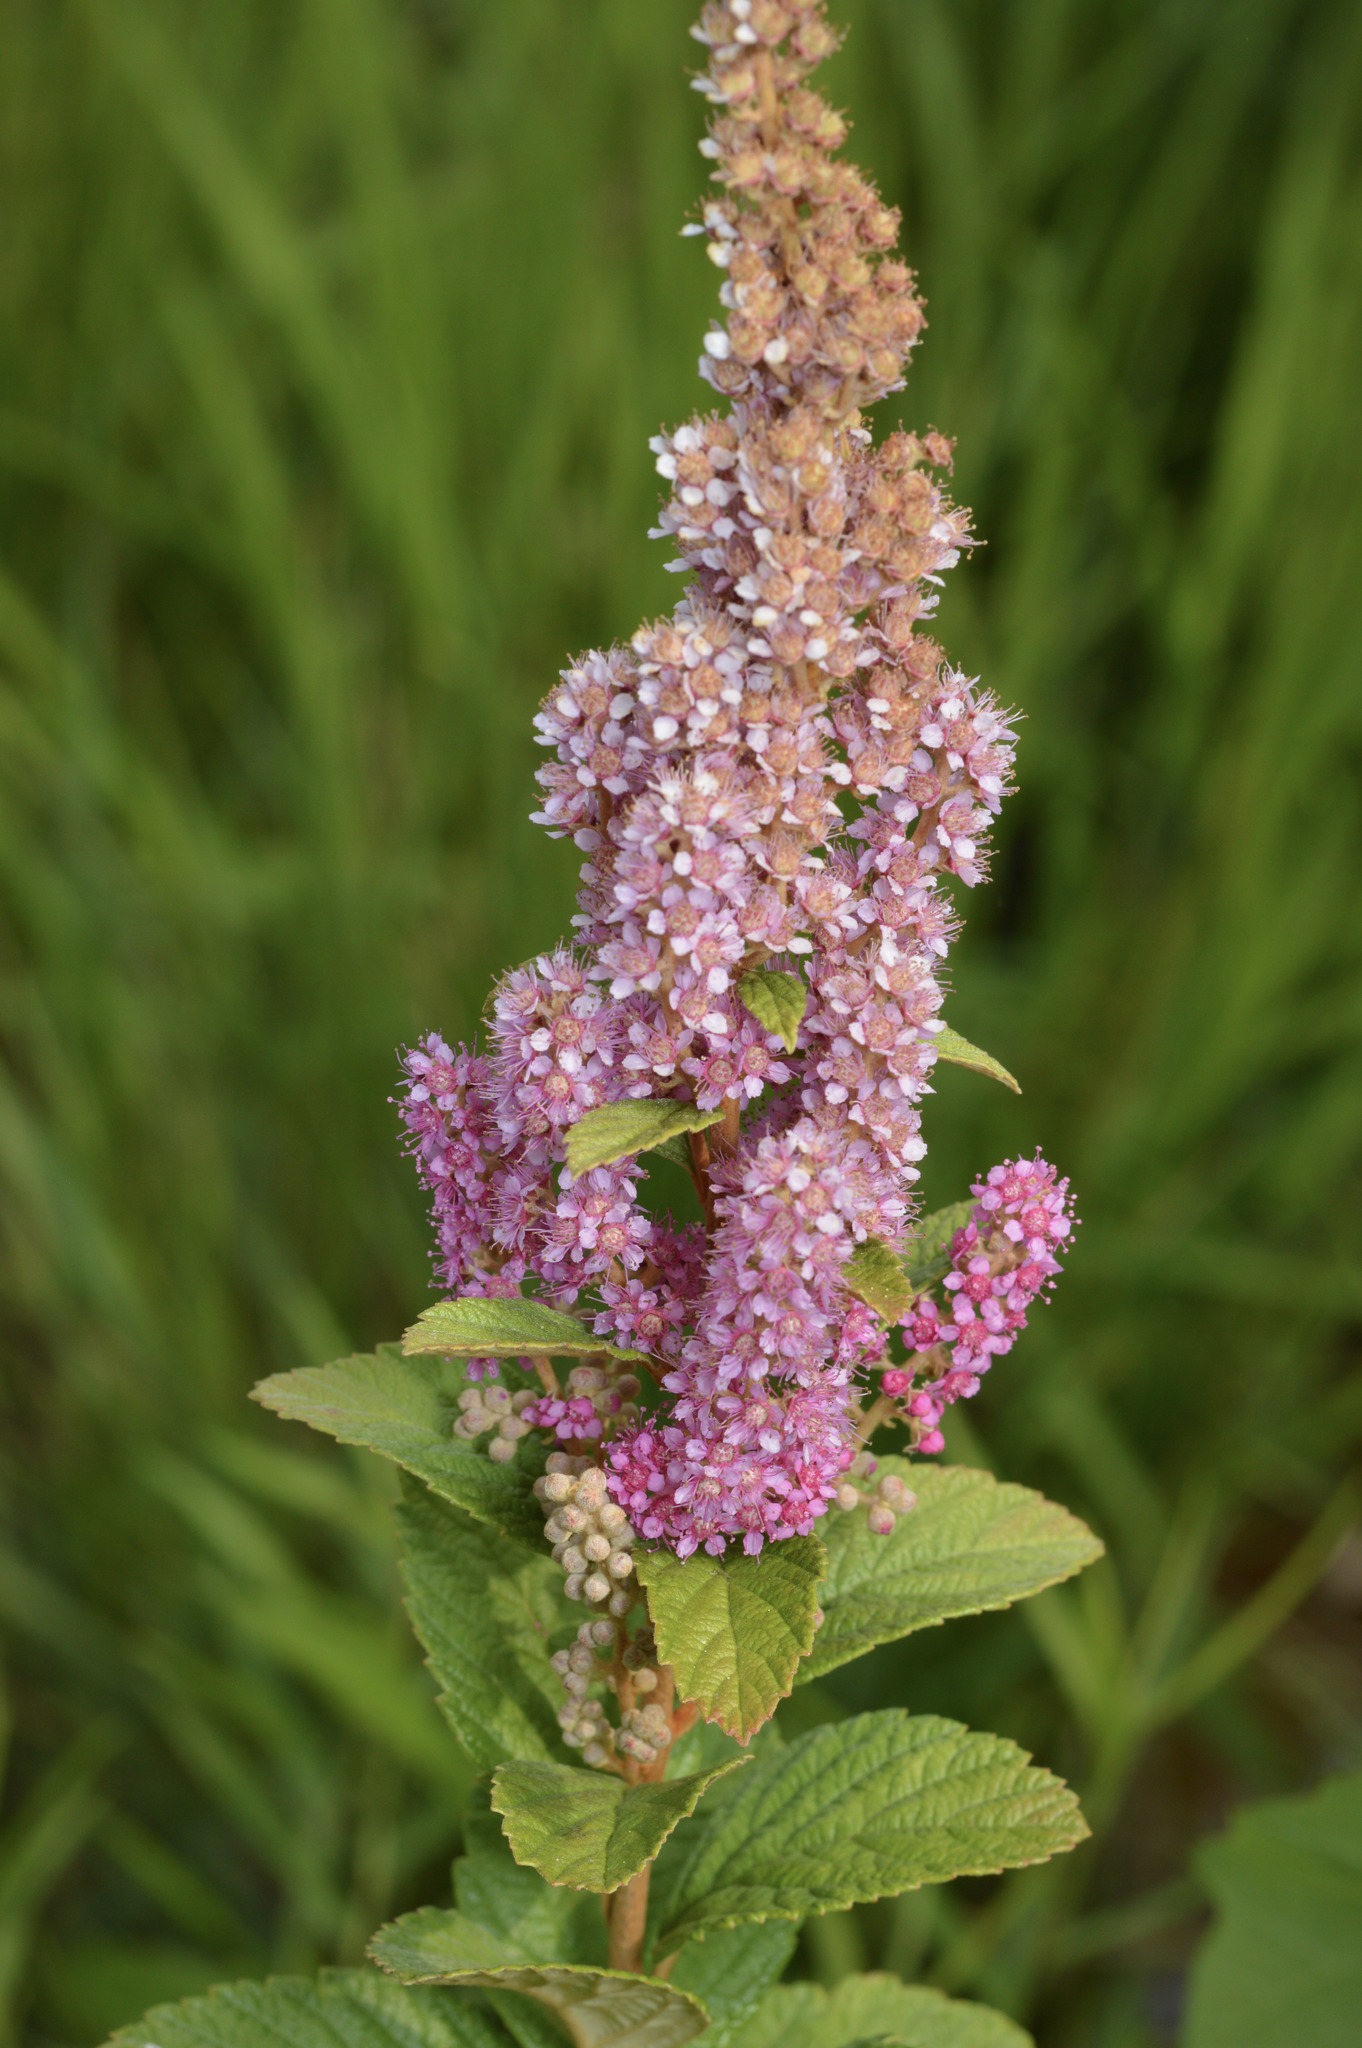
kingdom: Plantae
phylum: Tracheophyta
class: Magnoliopsida
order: Rosales
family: Rosaceae
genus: Spiraea
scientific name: Spiraea tomentosa
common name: Hardhack
